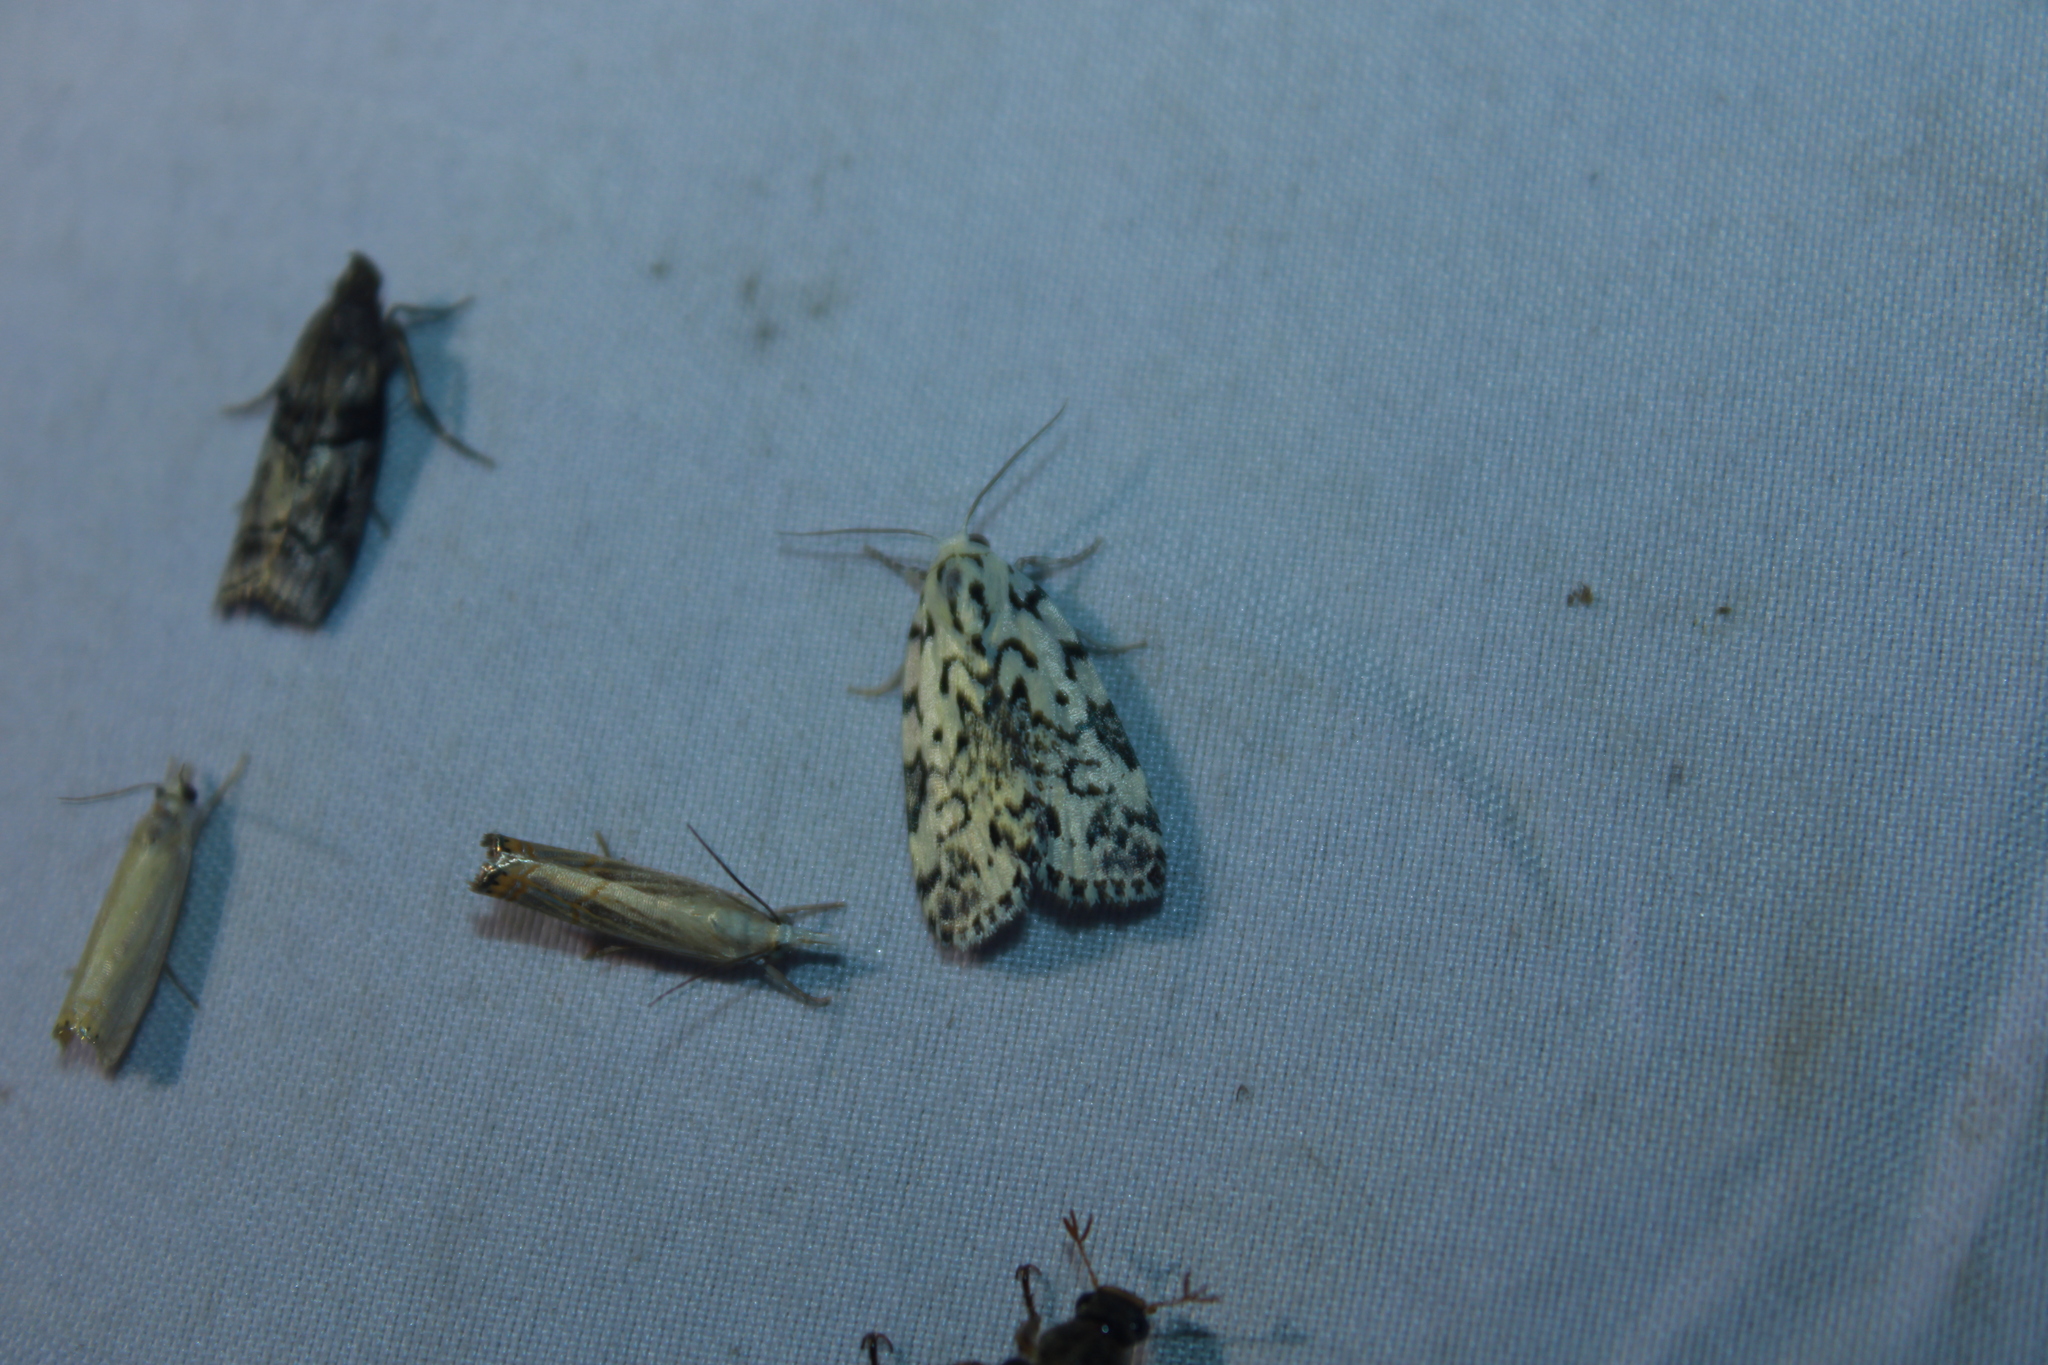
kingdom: Animalia
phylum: Arthropoda
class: Insecta
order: Lepidoptera
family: Noctuidae
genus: Polygrammate
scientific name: Polygrammate hebraeicum
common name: Hebrew moth
